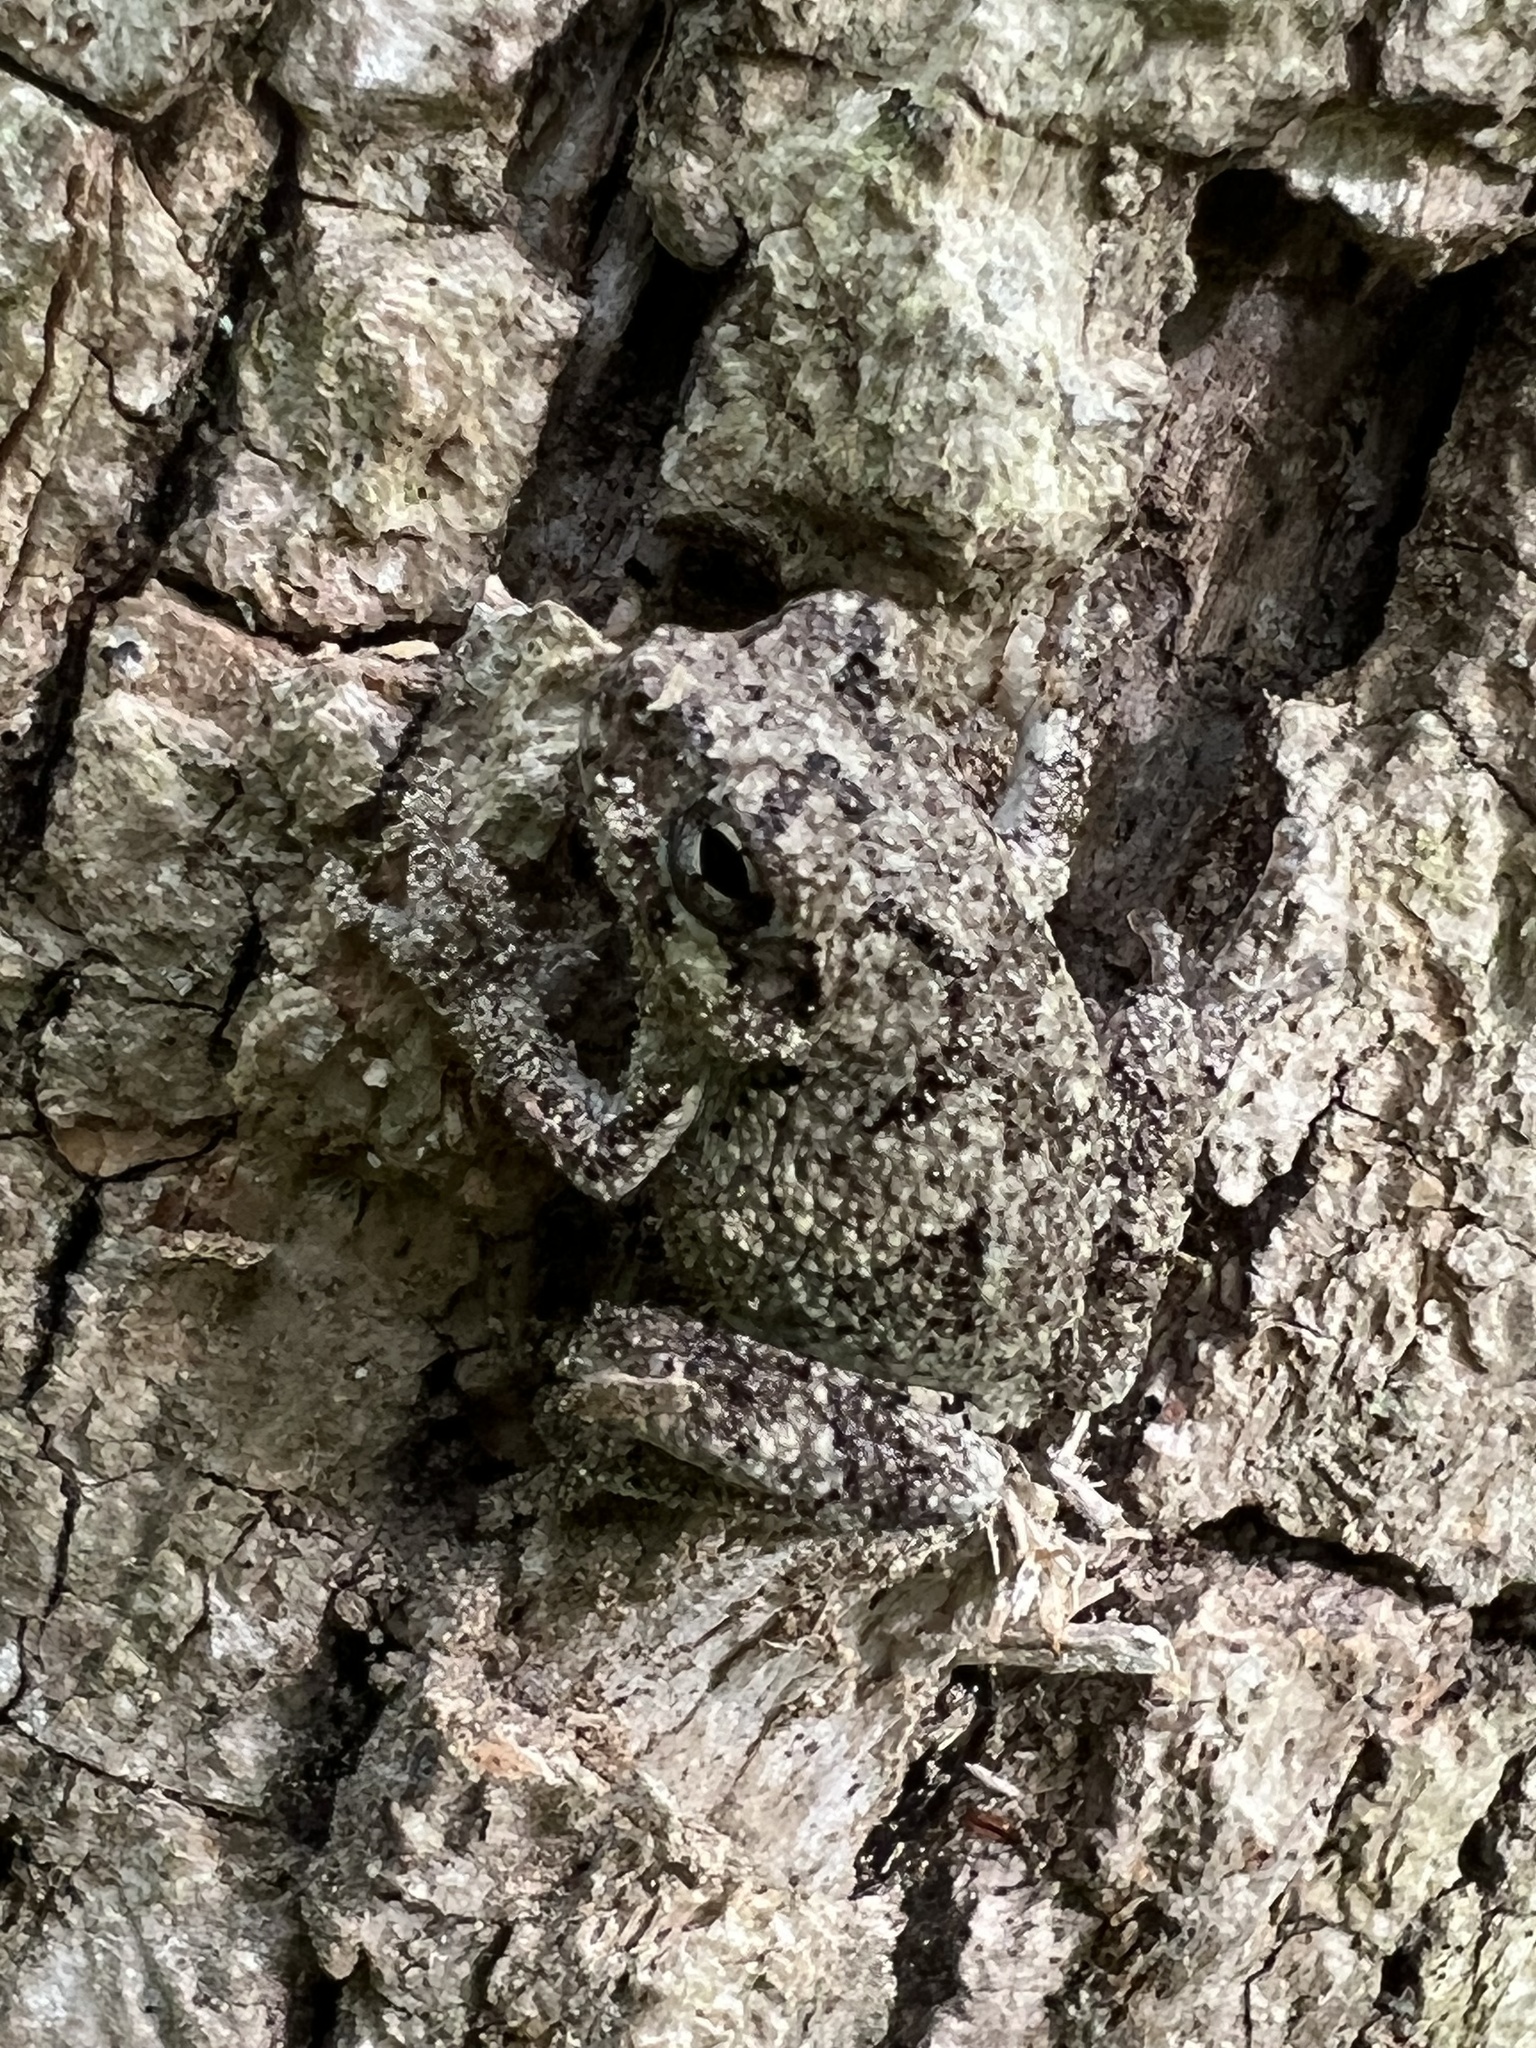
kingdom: Animalia
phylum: Chordata
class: Amphibia
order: Anura
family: Hylidae
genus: Hyla
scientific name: Hyla
